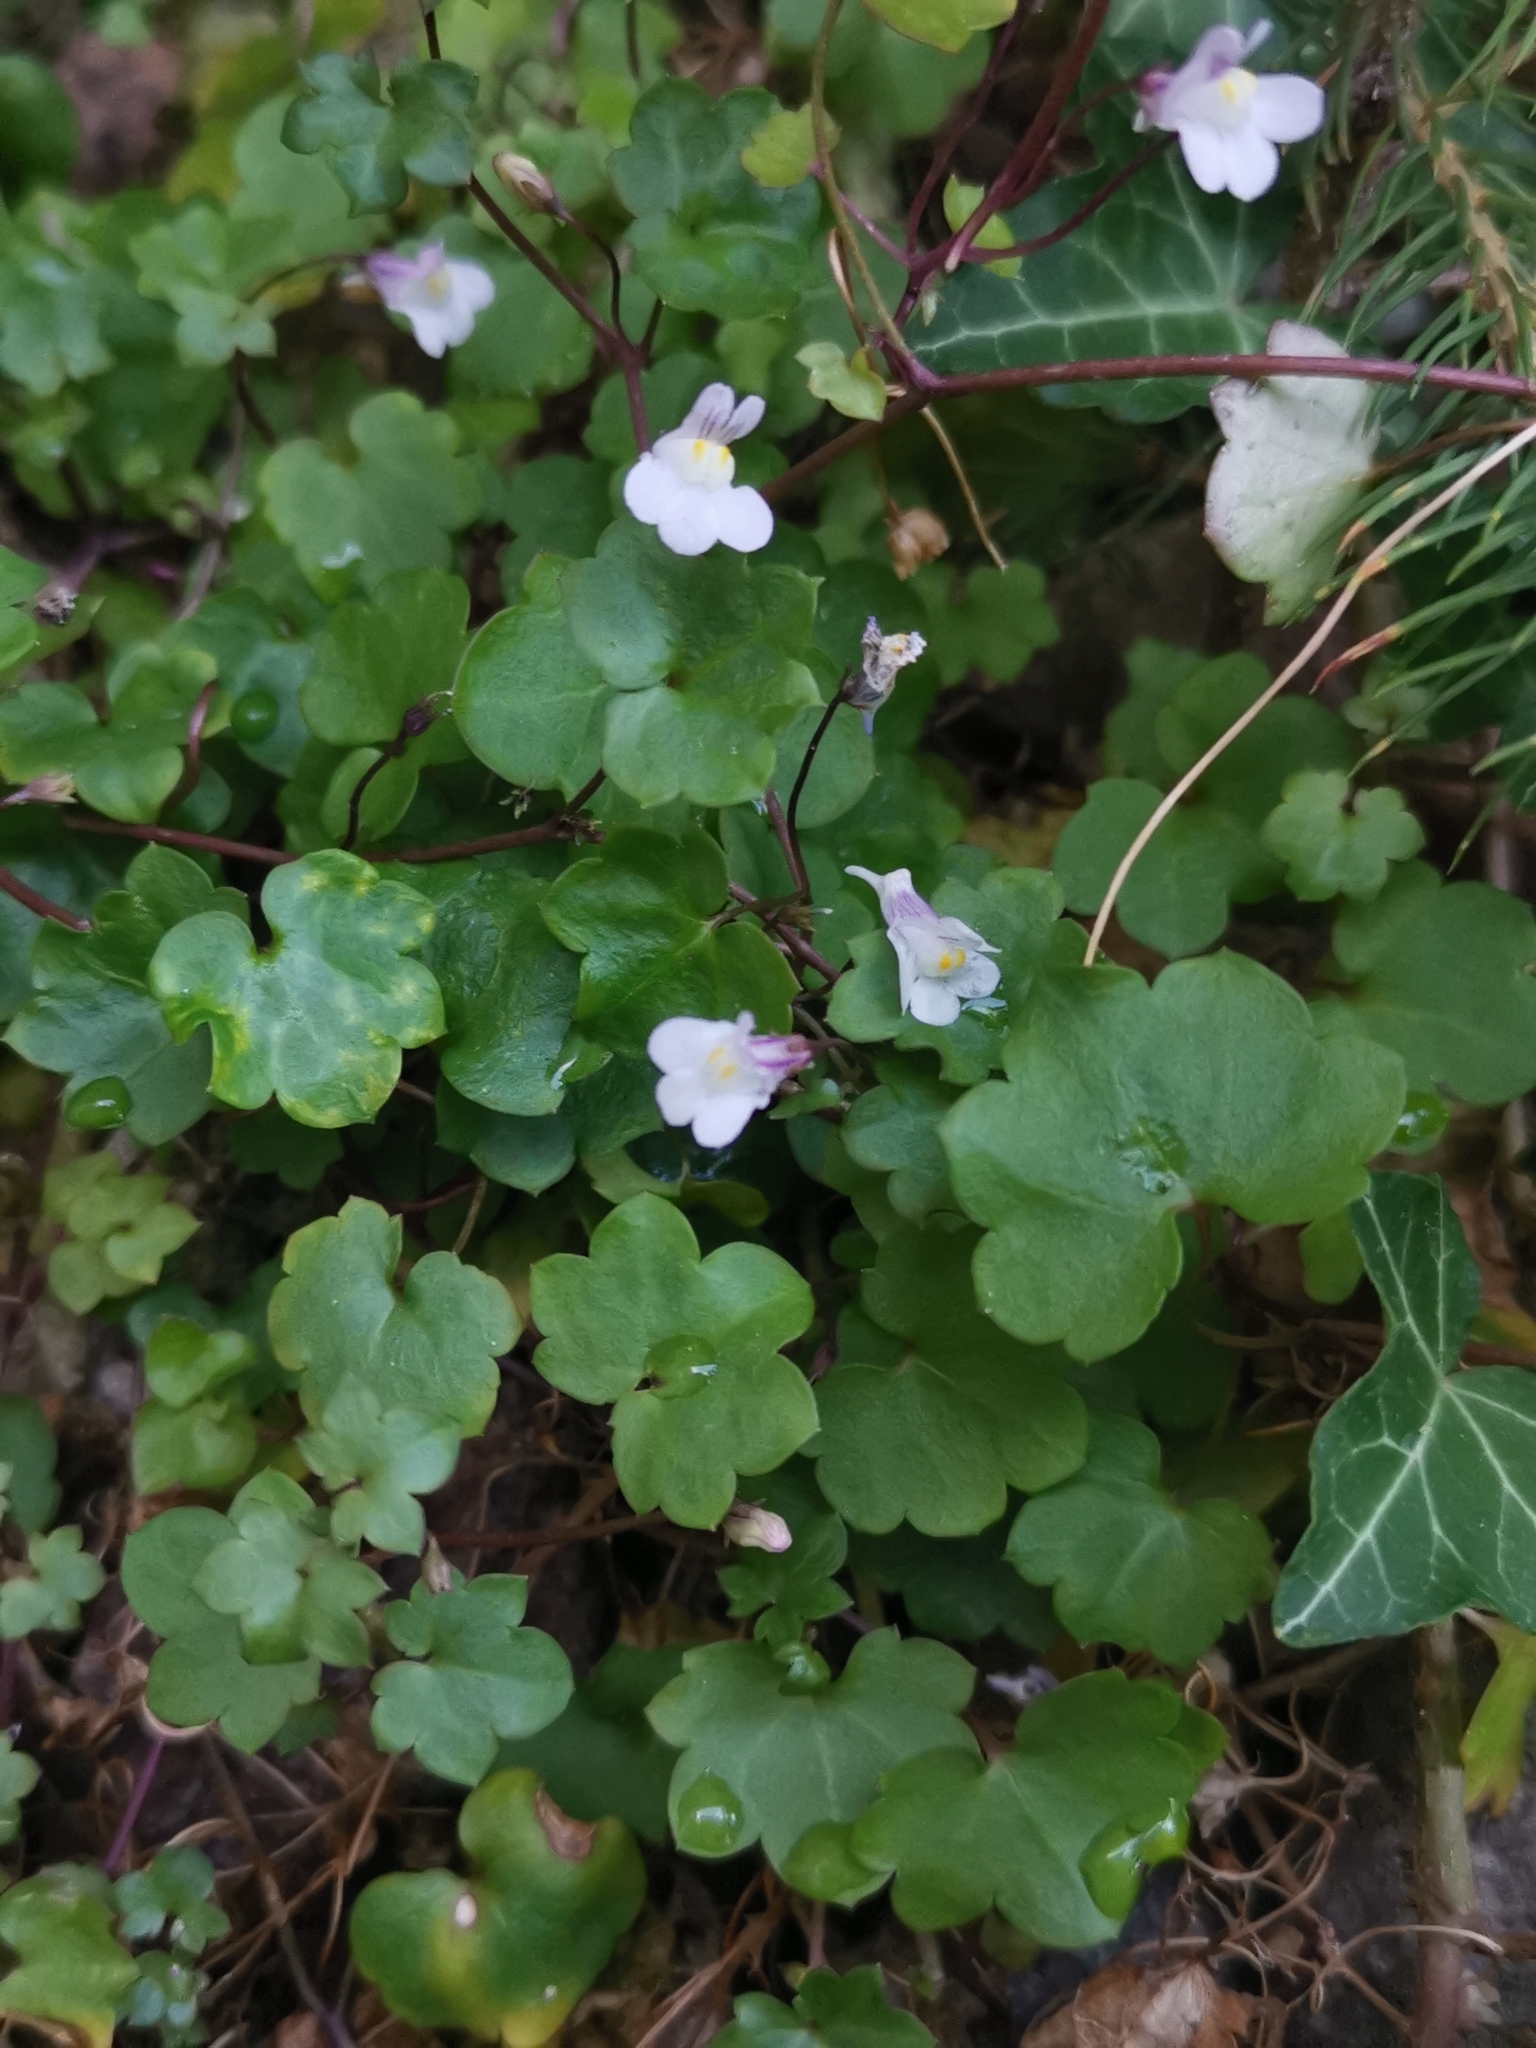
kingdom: Plantae
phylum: Tracheophyta
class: Magnoliopsida
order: Lamiales
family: Plantaginaceae
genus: Cymbalaria
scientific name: Cymbalaria muralis
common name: Ivy-leaved toadflax
